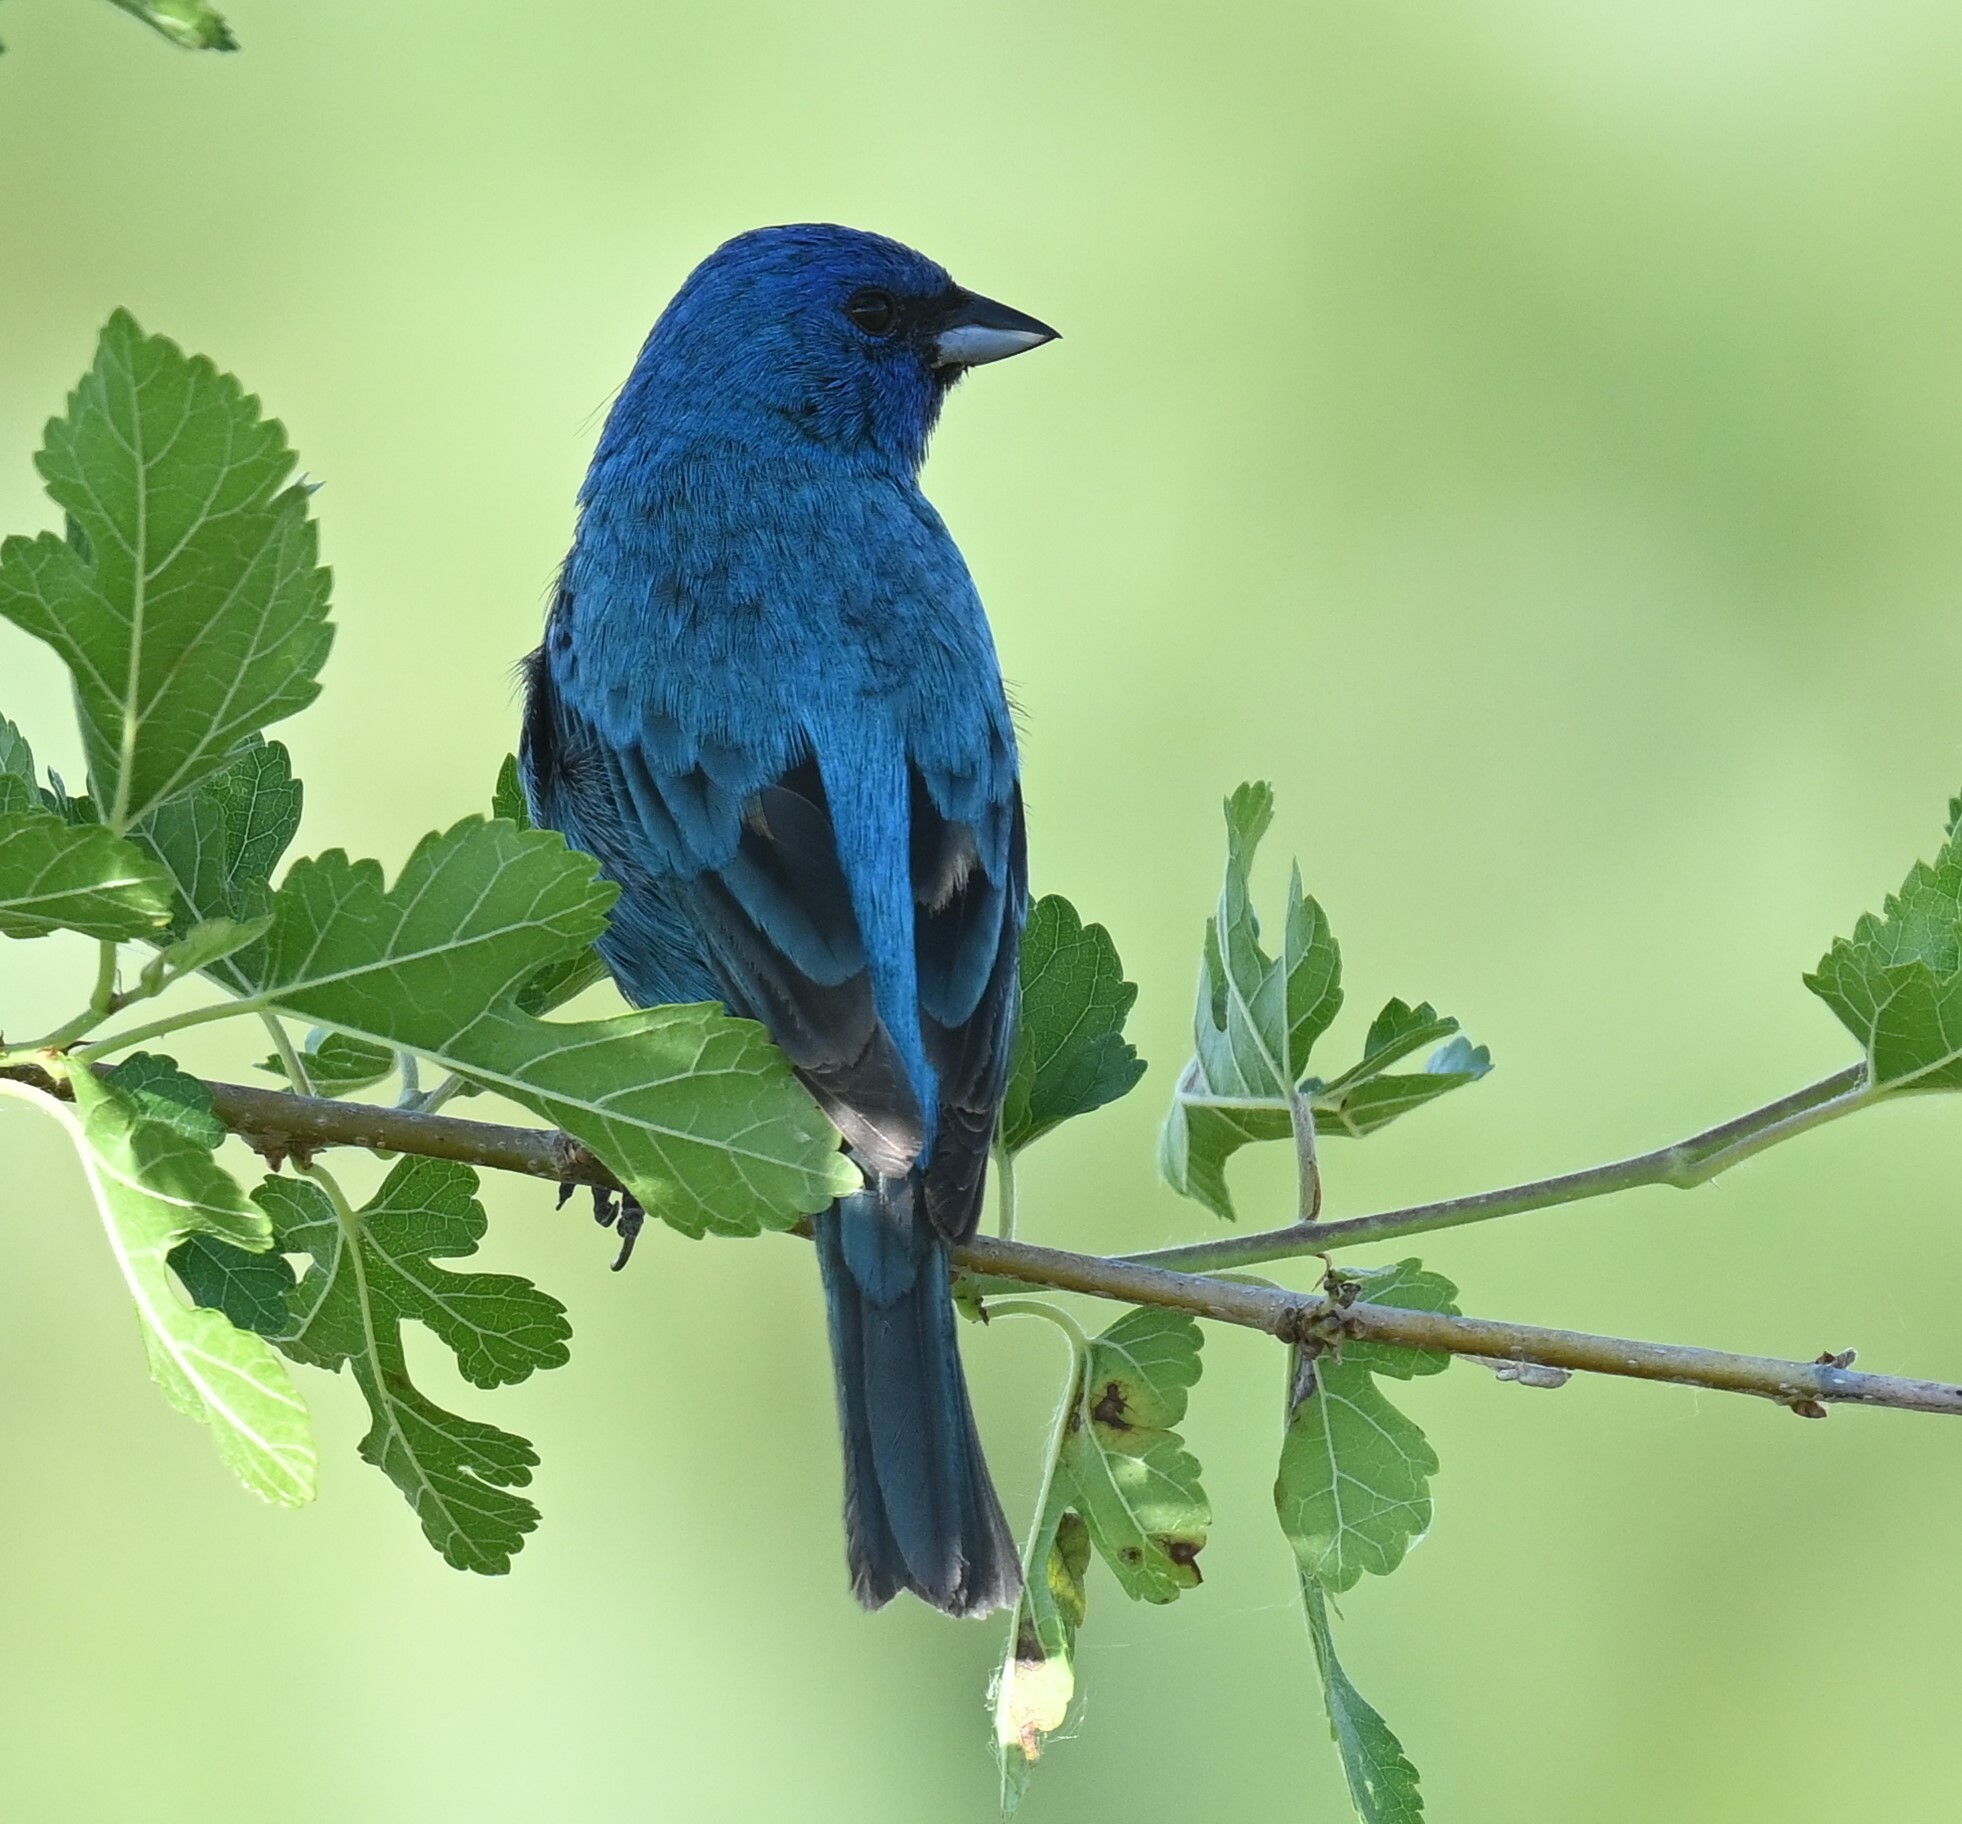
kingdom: Animalia
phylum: Chordata
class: Aves
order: Passeriformes
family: Cardinalidae
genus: Passerina
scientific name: Passerina cyanea
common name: Indigo bunting
